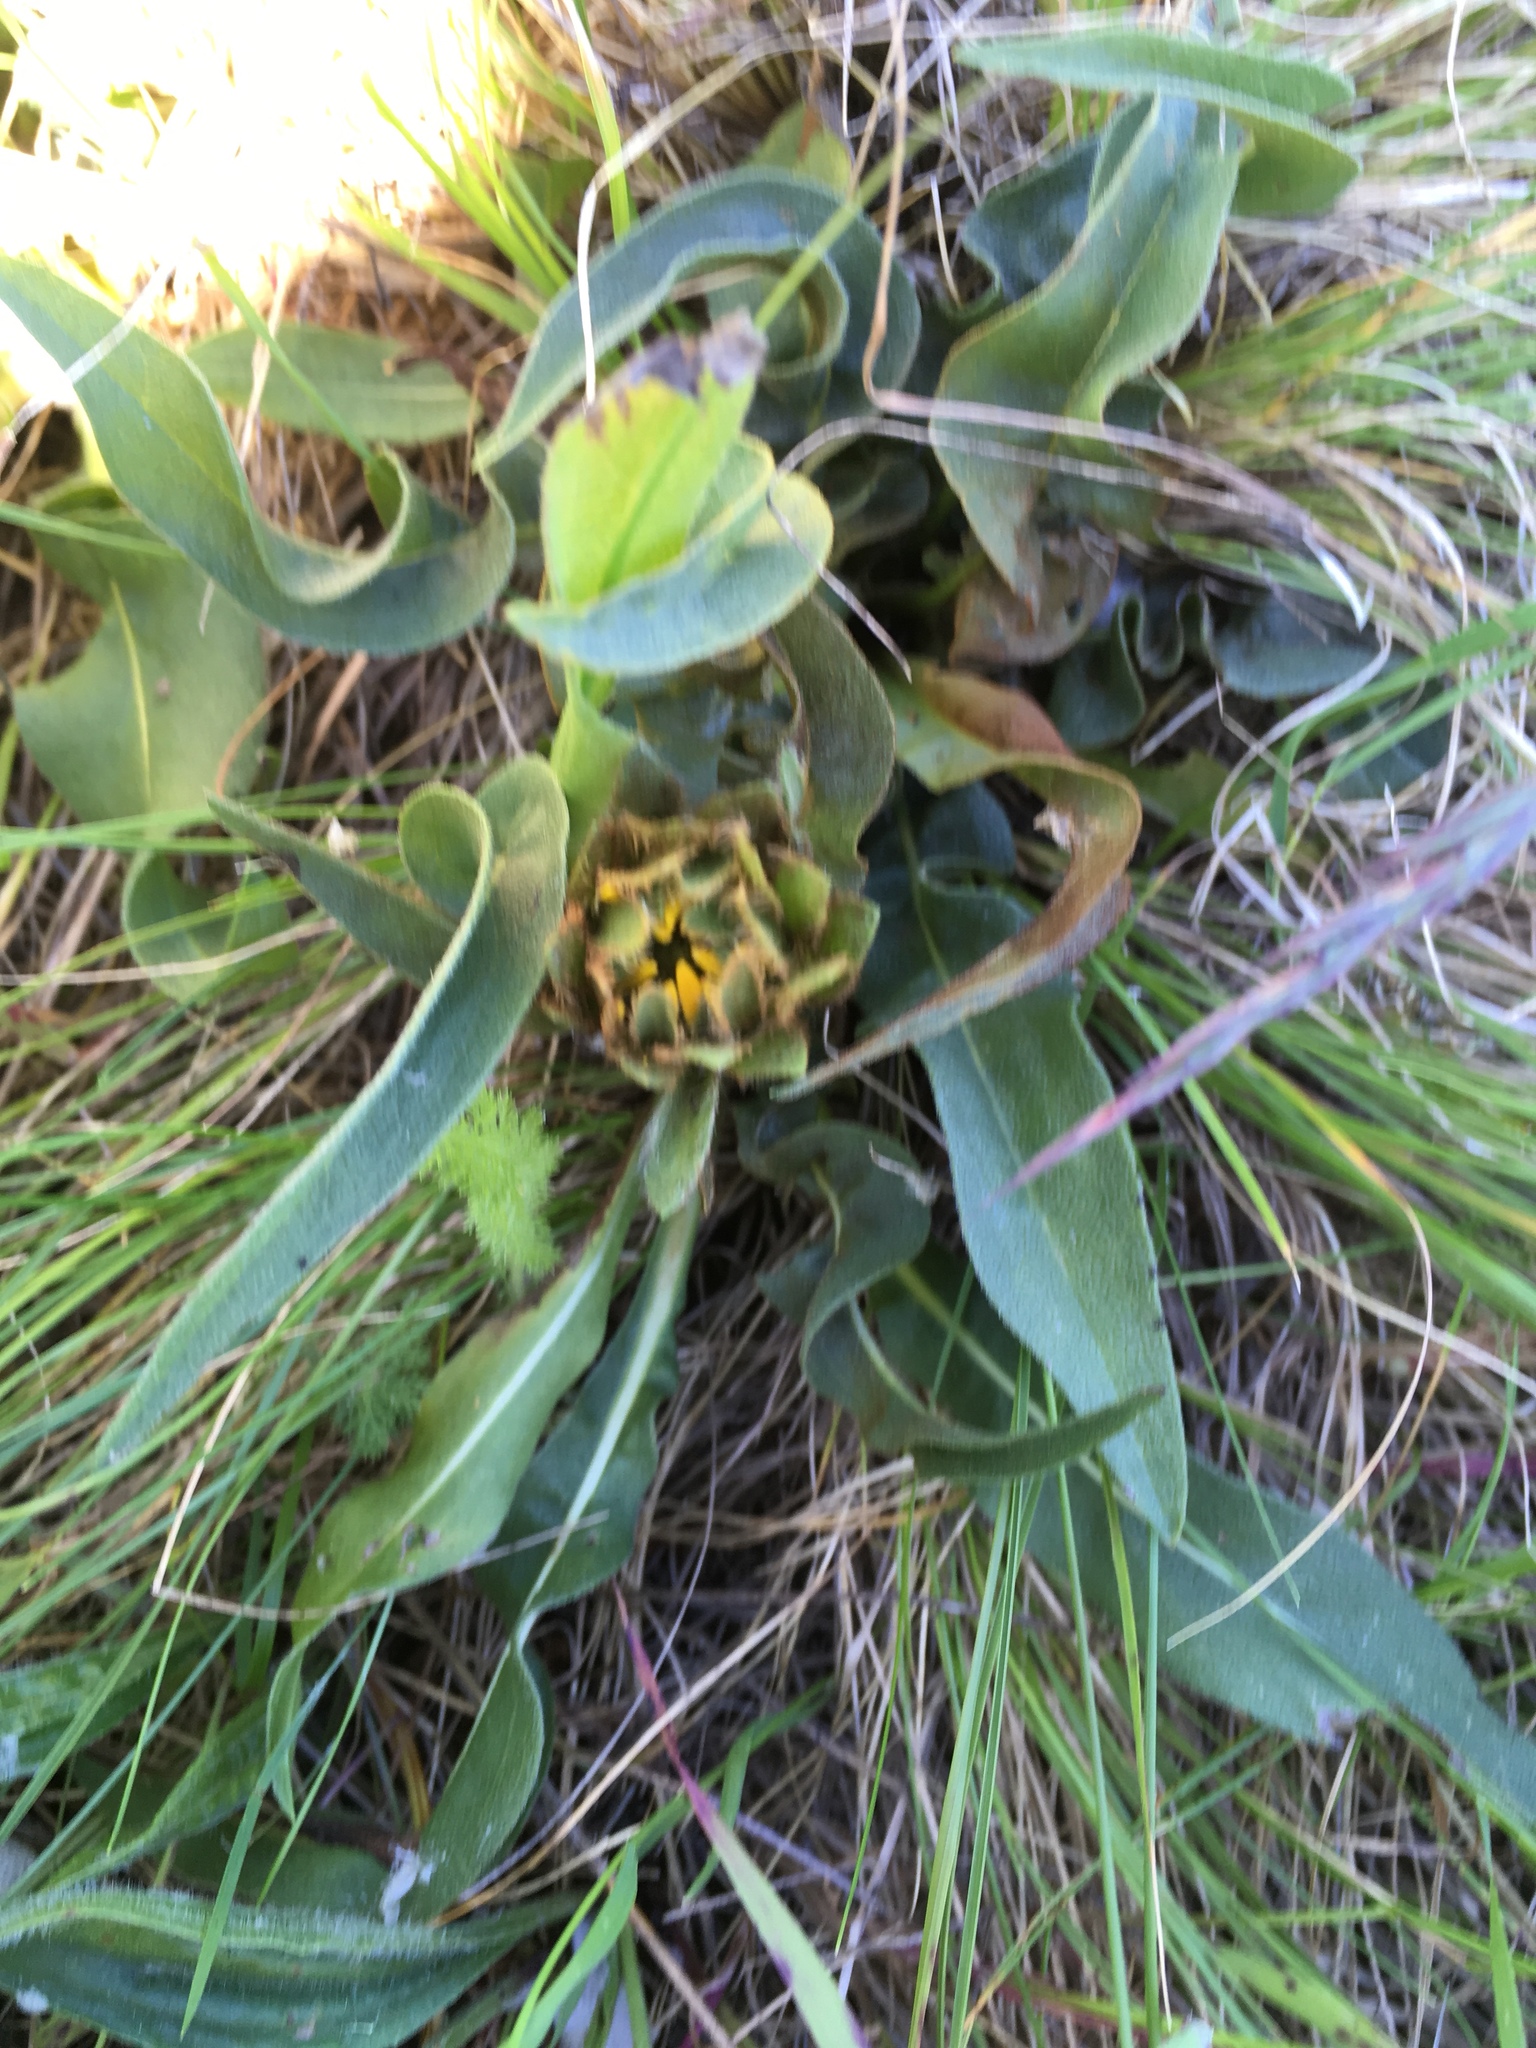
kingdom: Plantae
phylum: Tracheophyta
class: Magnoliopsida
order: Asterales
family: Asteraceae
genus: Wyethia
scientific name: Wyethia angustifolia
